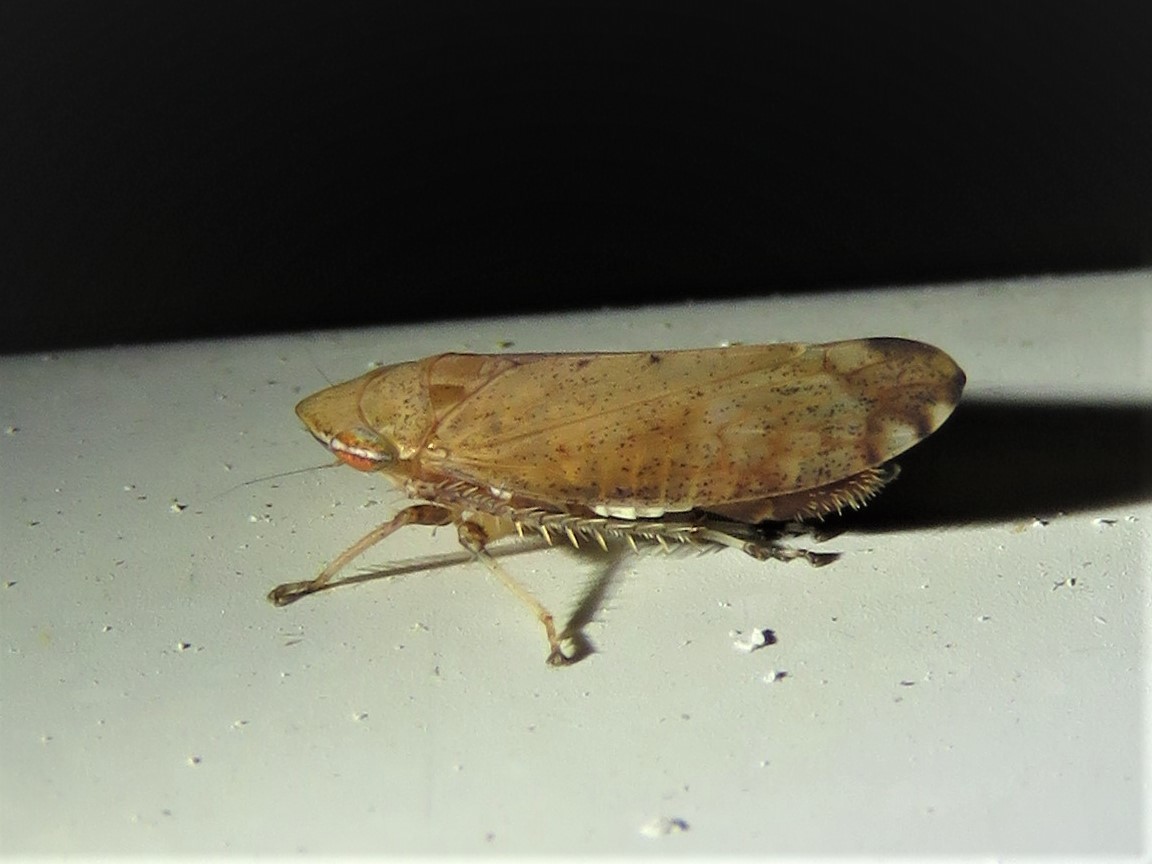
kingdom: Animalia
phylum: Arthropoda
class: Insecta
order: Hemiptera
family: Cicadellidae
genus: Fieberiella
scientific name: Fieberiella florii
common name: Flor’s leafhopper
